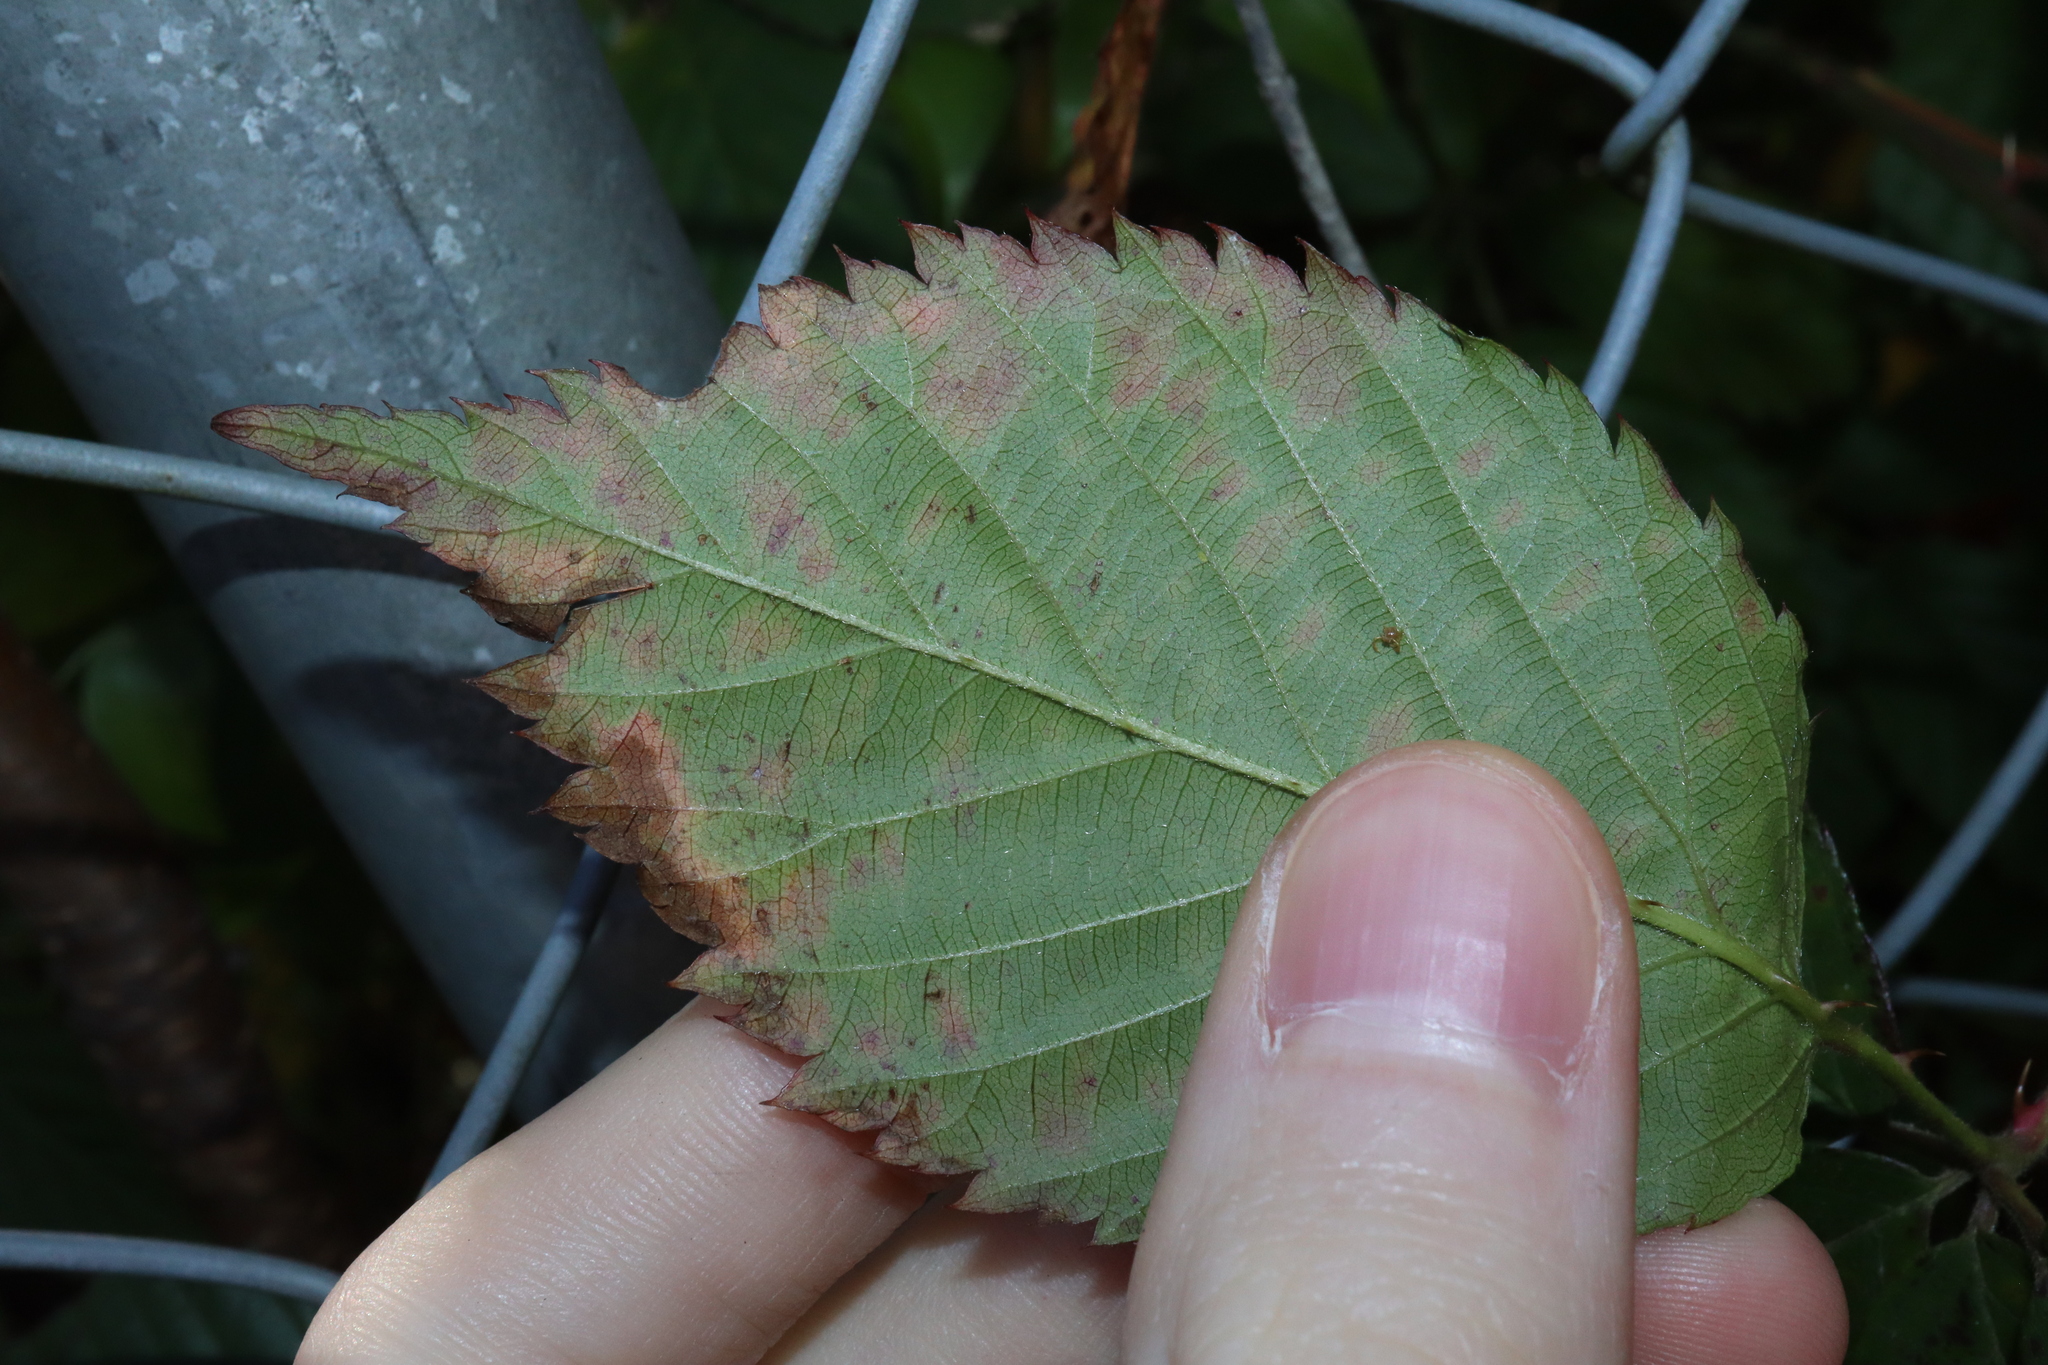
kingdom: Fungi
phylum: Basidiomycota
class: Pucciniomycetes
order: Pucciniales
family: Phragmidiaceae
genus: Phragmidium
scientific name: Phragmidium violaceum
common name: Violet bramble rust
